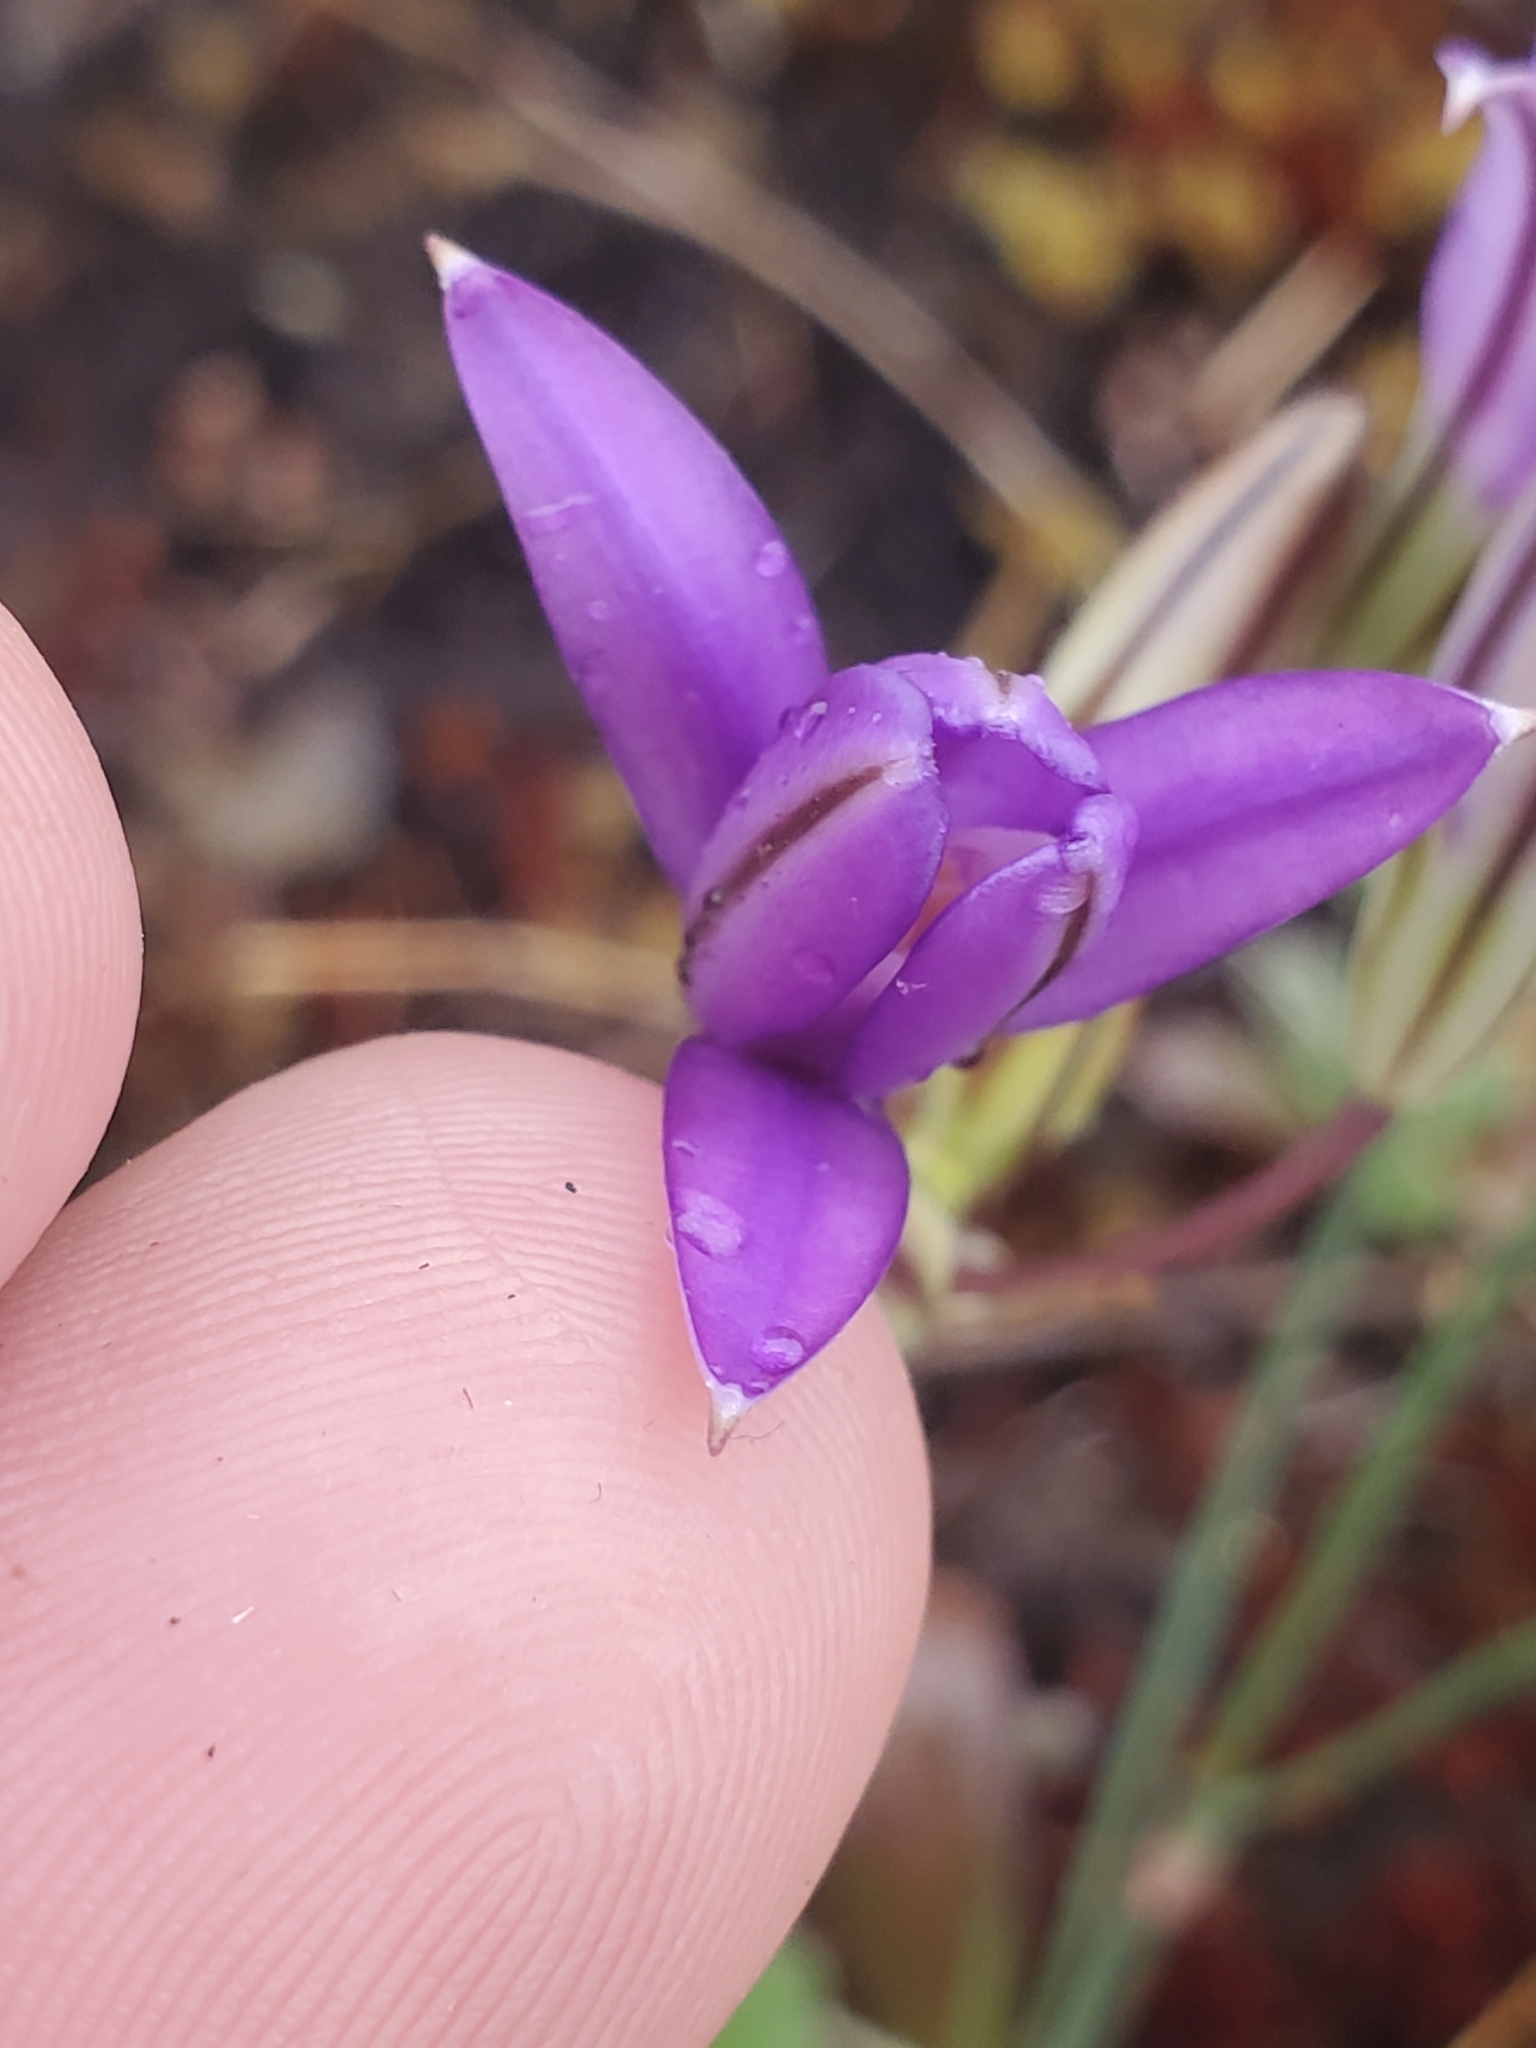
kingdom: Plantae
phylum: Tracheophyta
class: Liliopsida
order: Asparagales
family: Asparagaceae
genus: Brodiaea
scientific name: Brodiaea coronaria
